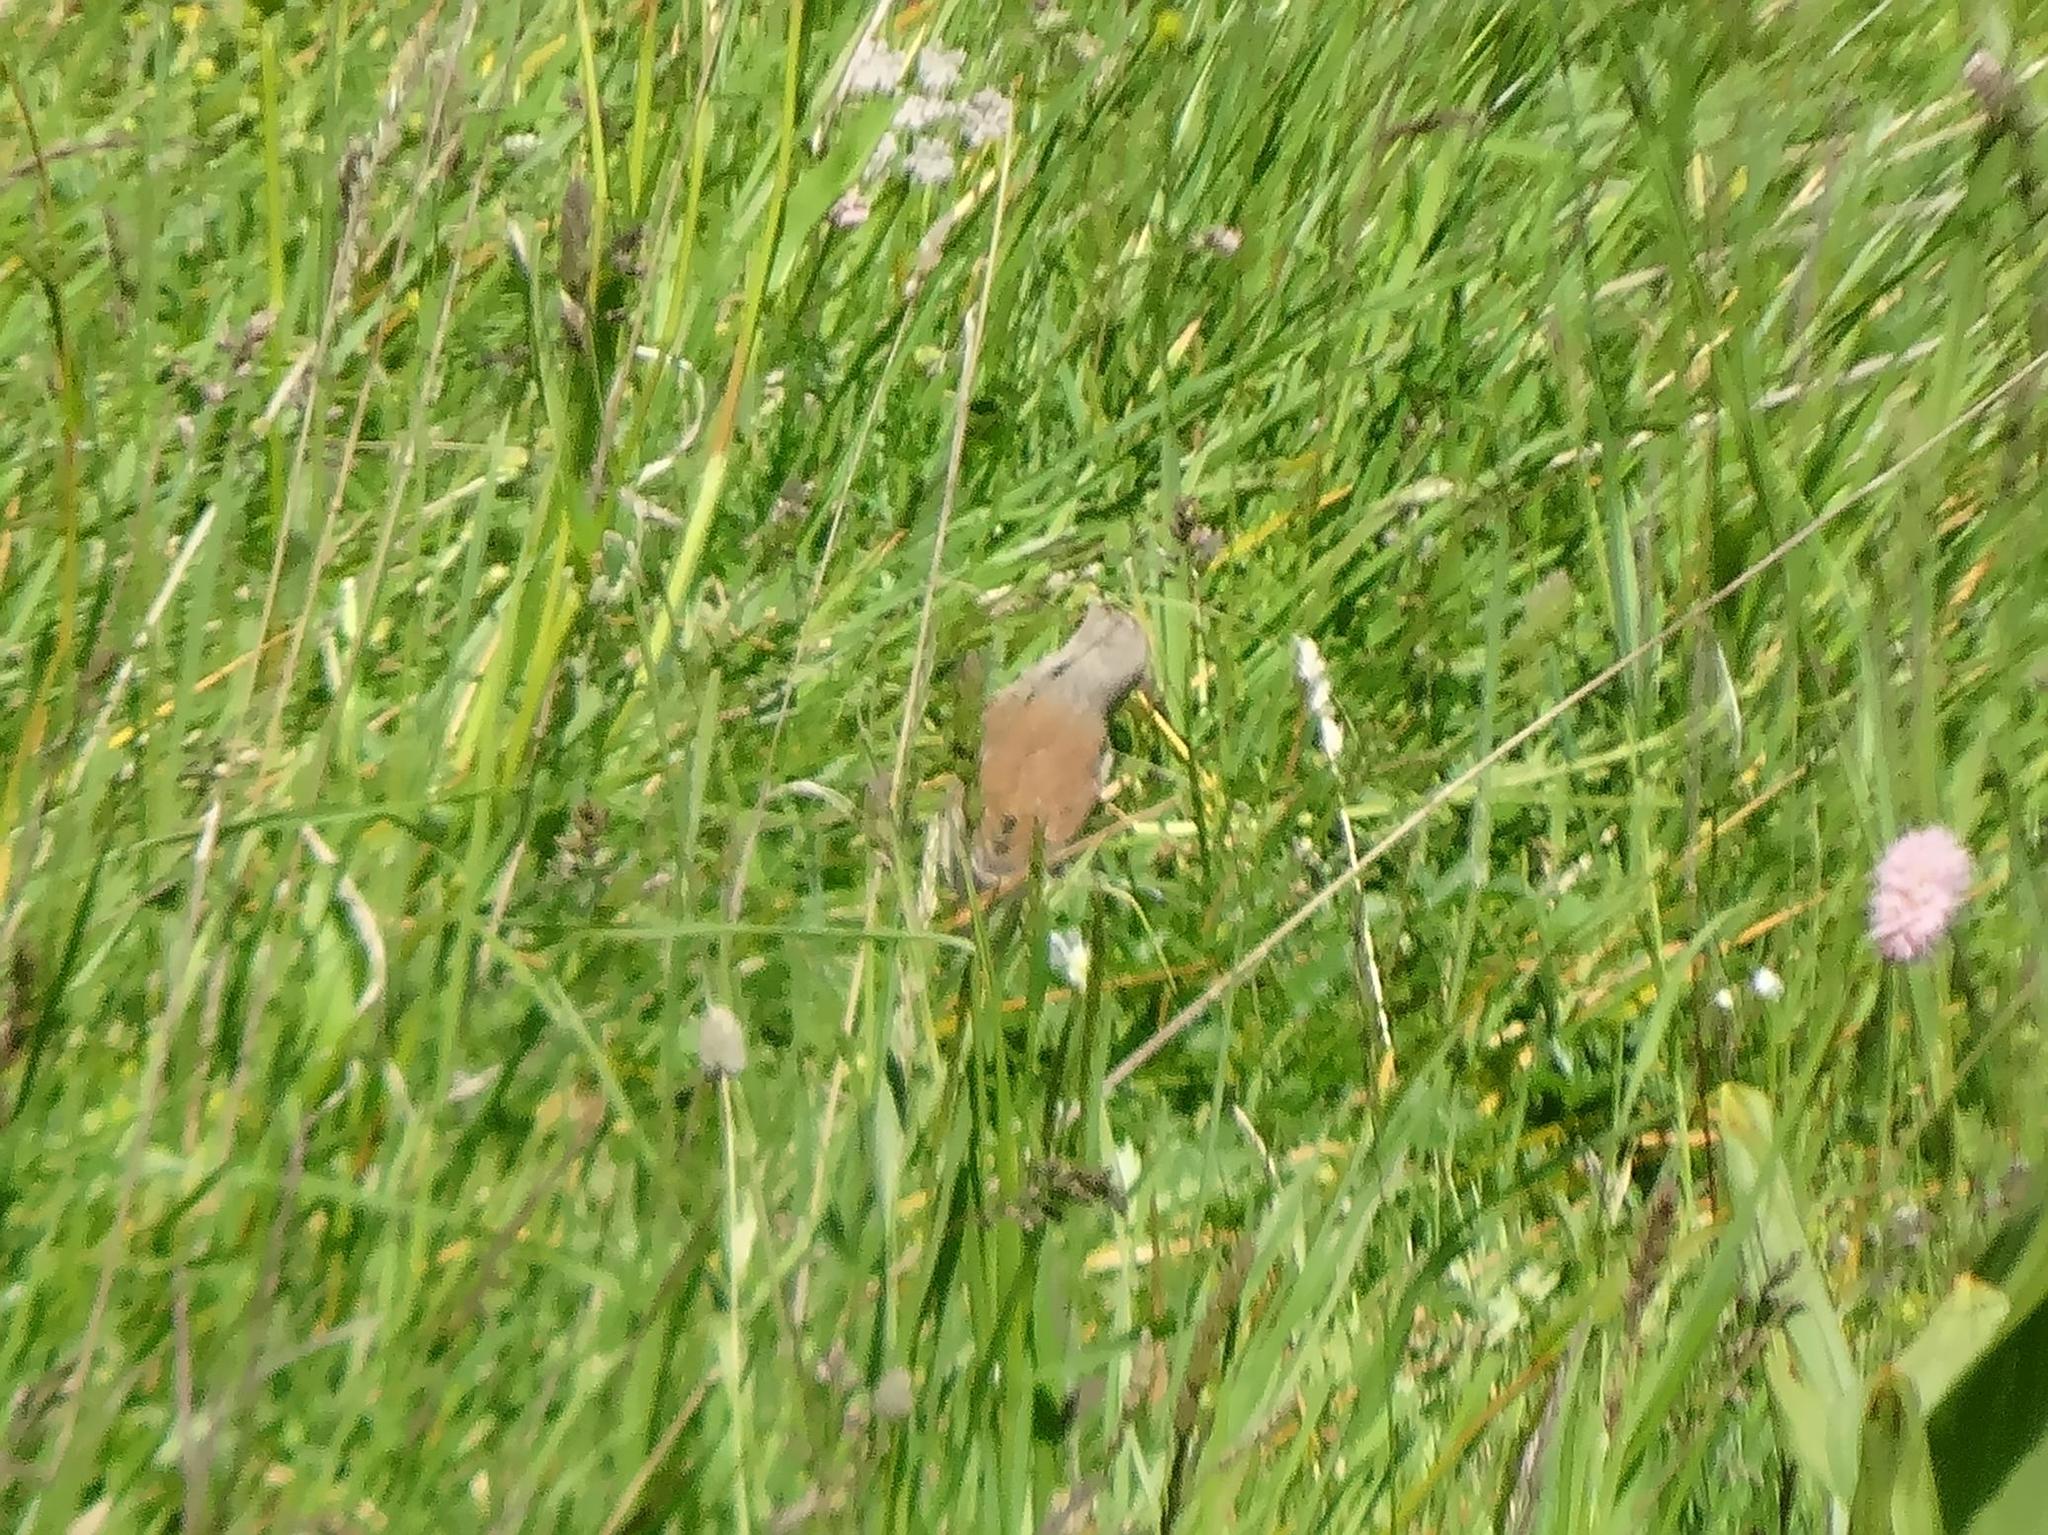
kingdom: Animalia
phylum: Chordata
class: Aves
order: Passeriformes
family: Fringillidae
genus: Linaria
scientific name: Linaria cannabina
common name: Common linnet
